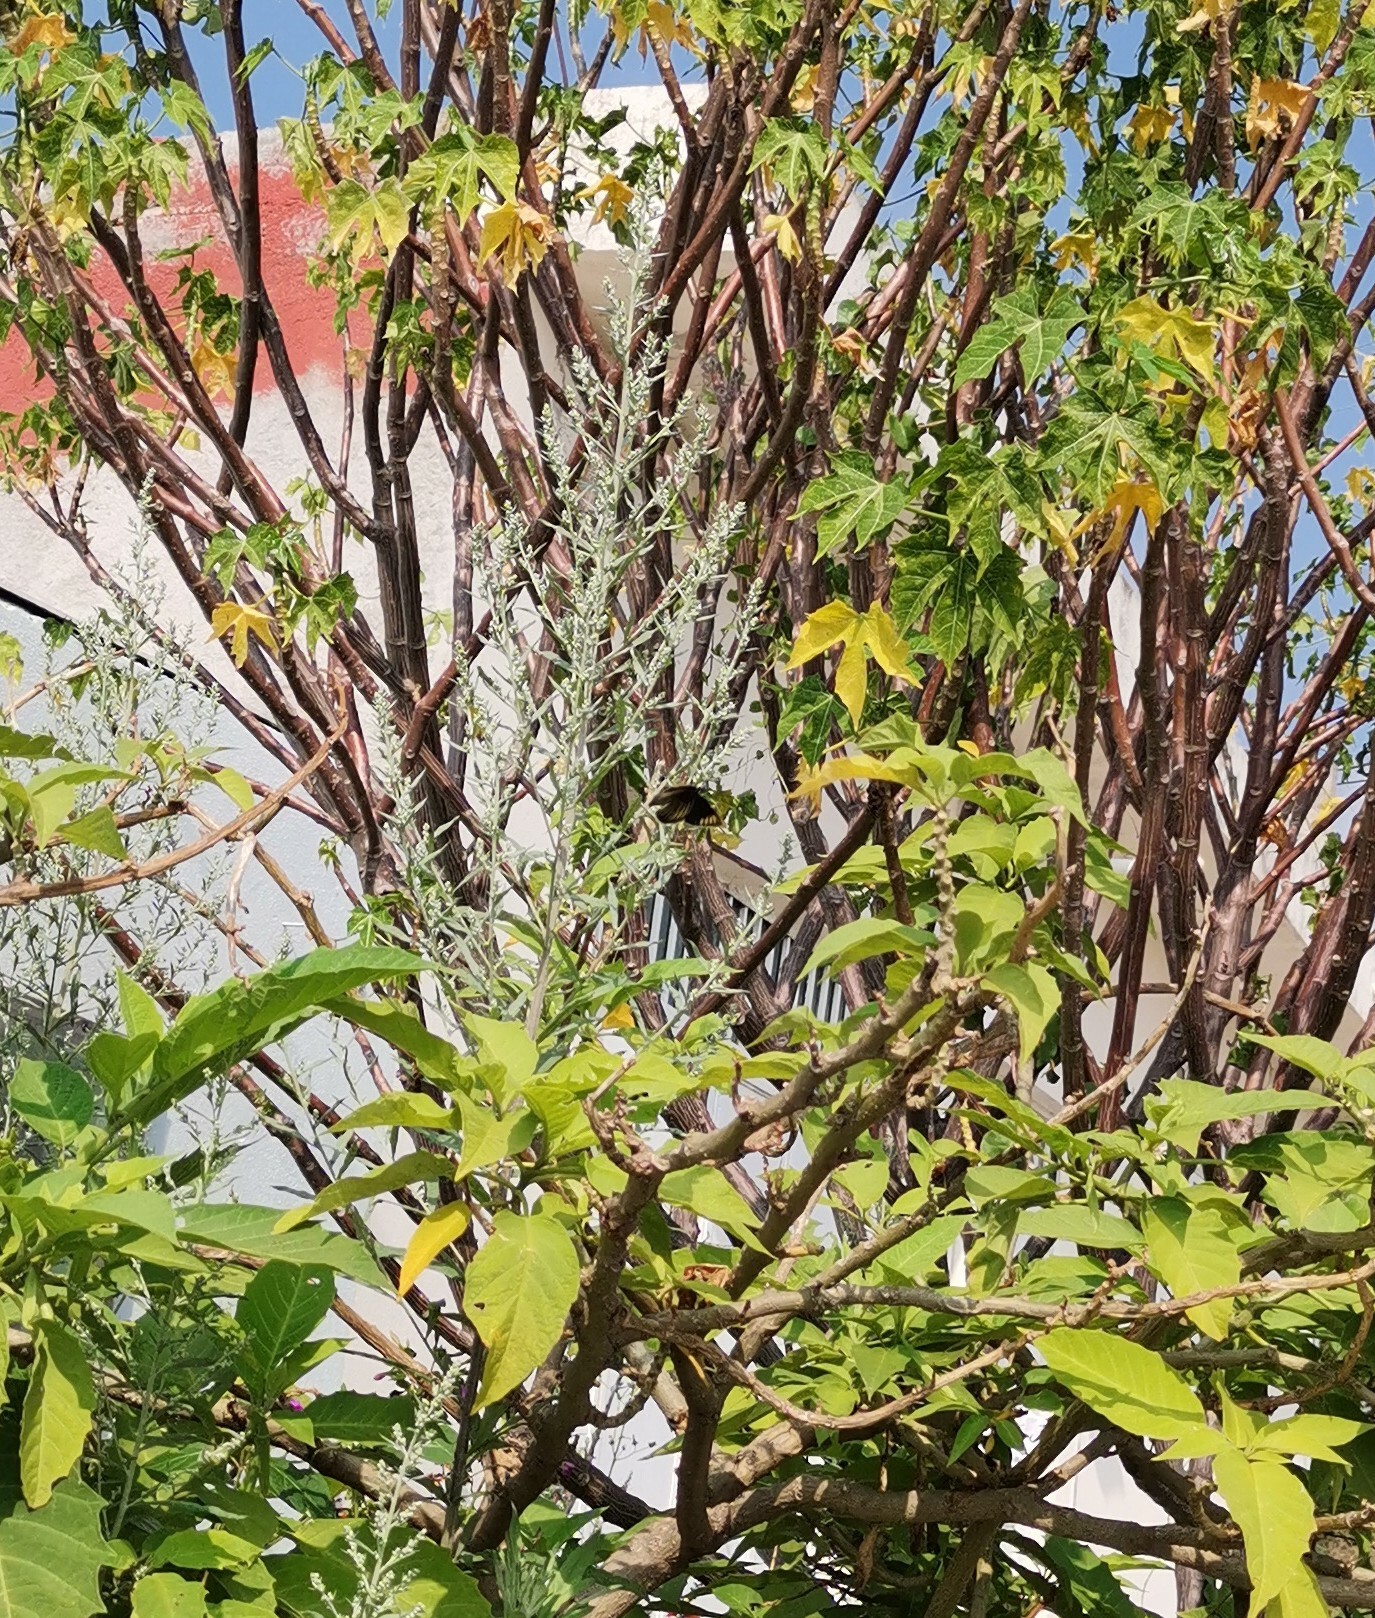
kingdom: Animalia
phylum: Arthropoda
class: Insecta
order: Lepidoptera
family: Nymphalidae
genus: Chlosyne
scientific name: Chlosyne ehrenbergii
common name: White-rayed patch
